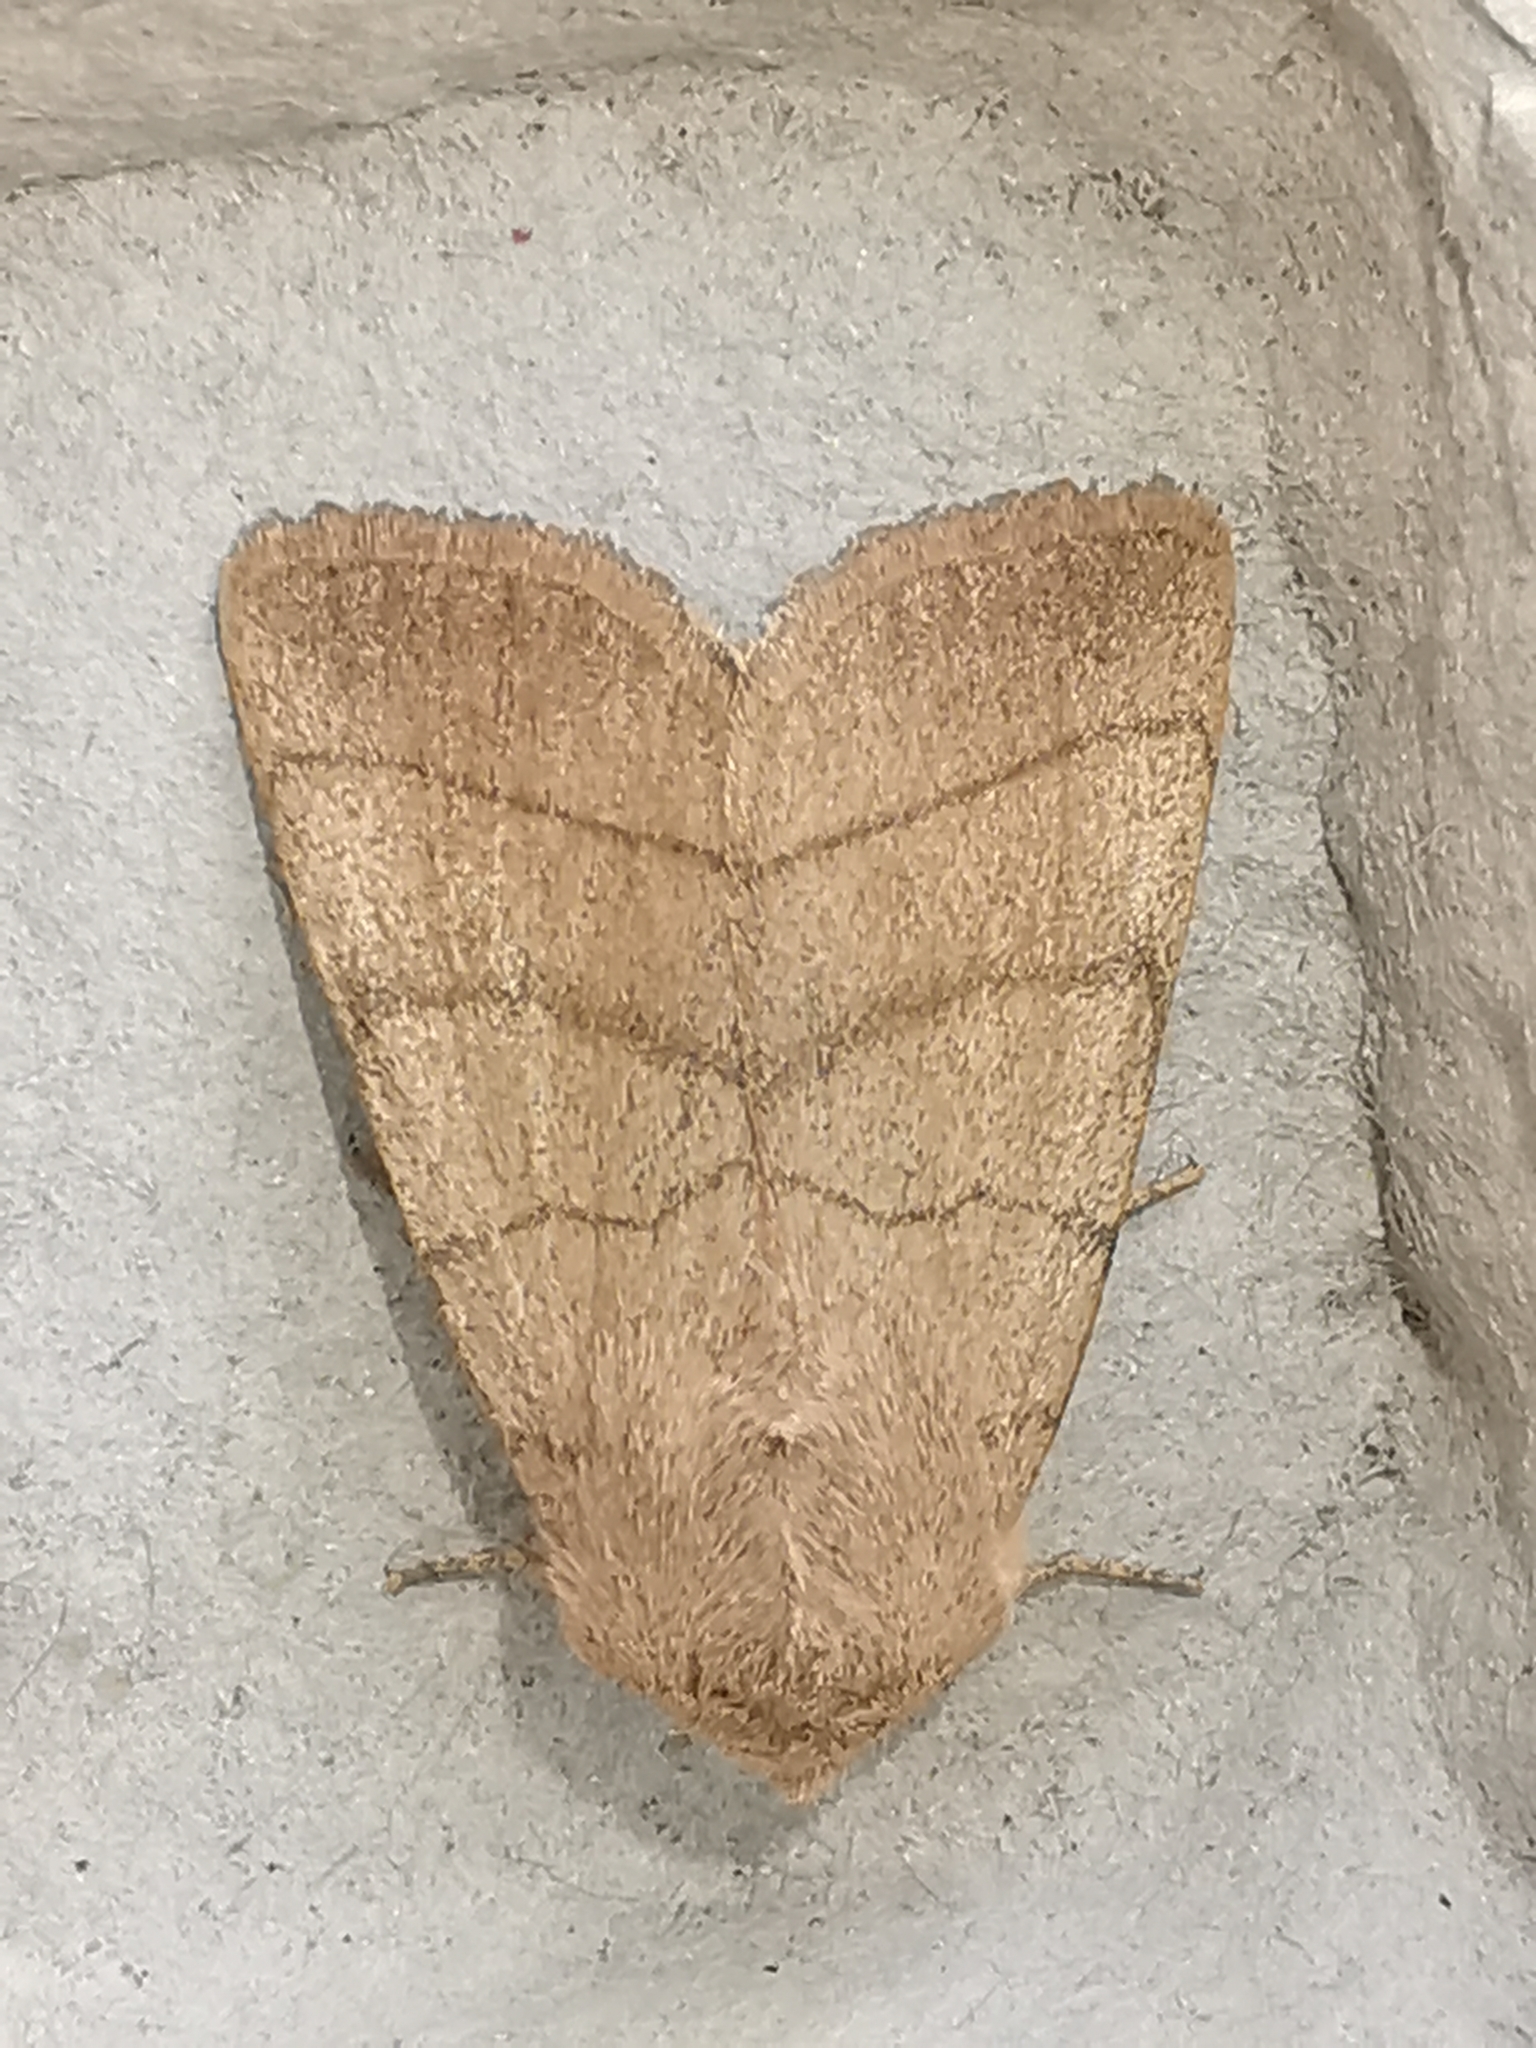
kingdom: Animalia
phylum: Arthropoda
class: Insecta
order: Lepidoptera
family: Noctuidae
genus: Charanyca
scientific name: Charanyca trigrammica
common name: Treble lines
